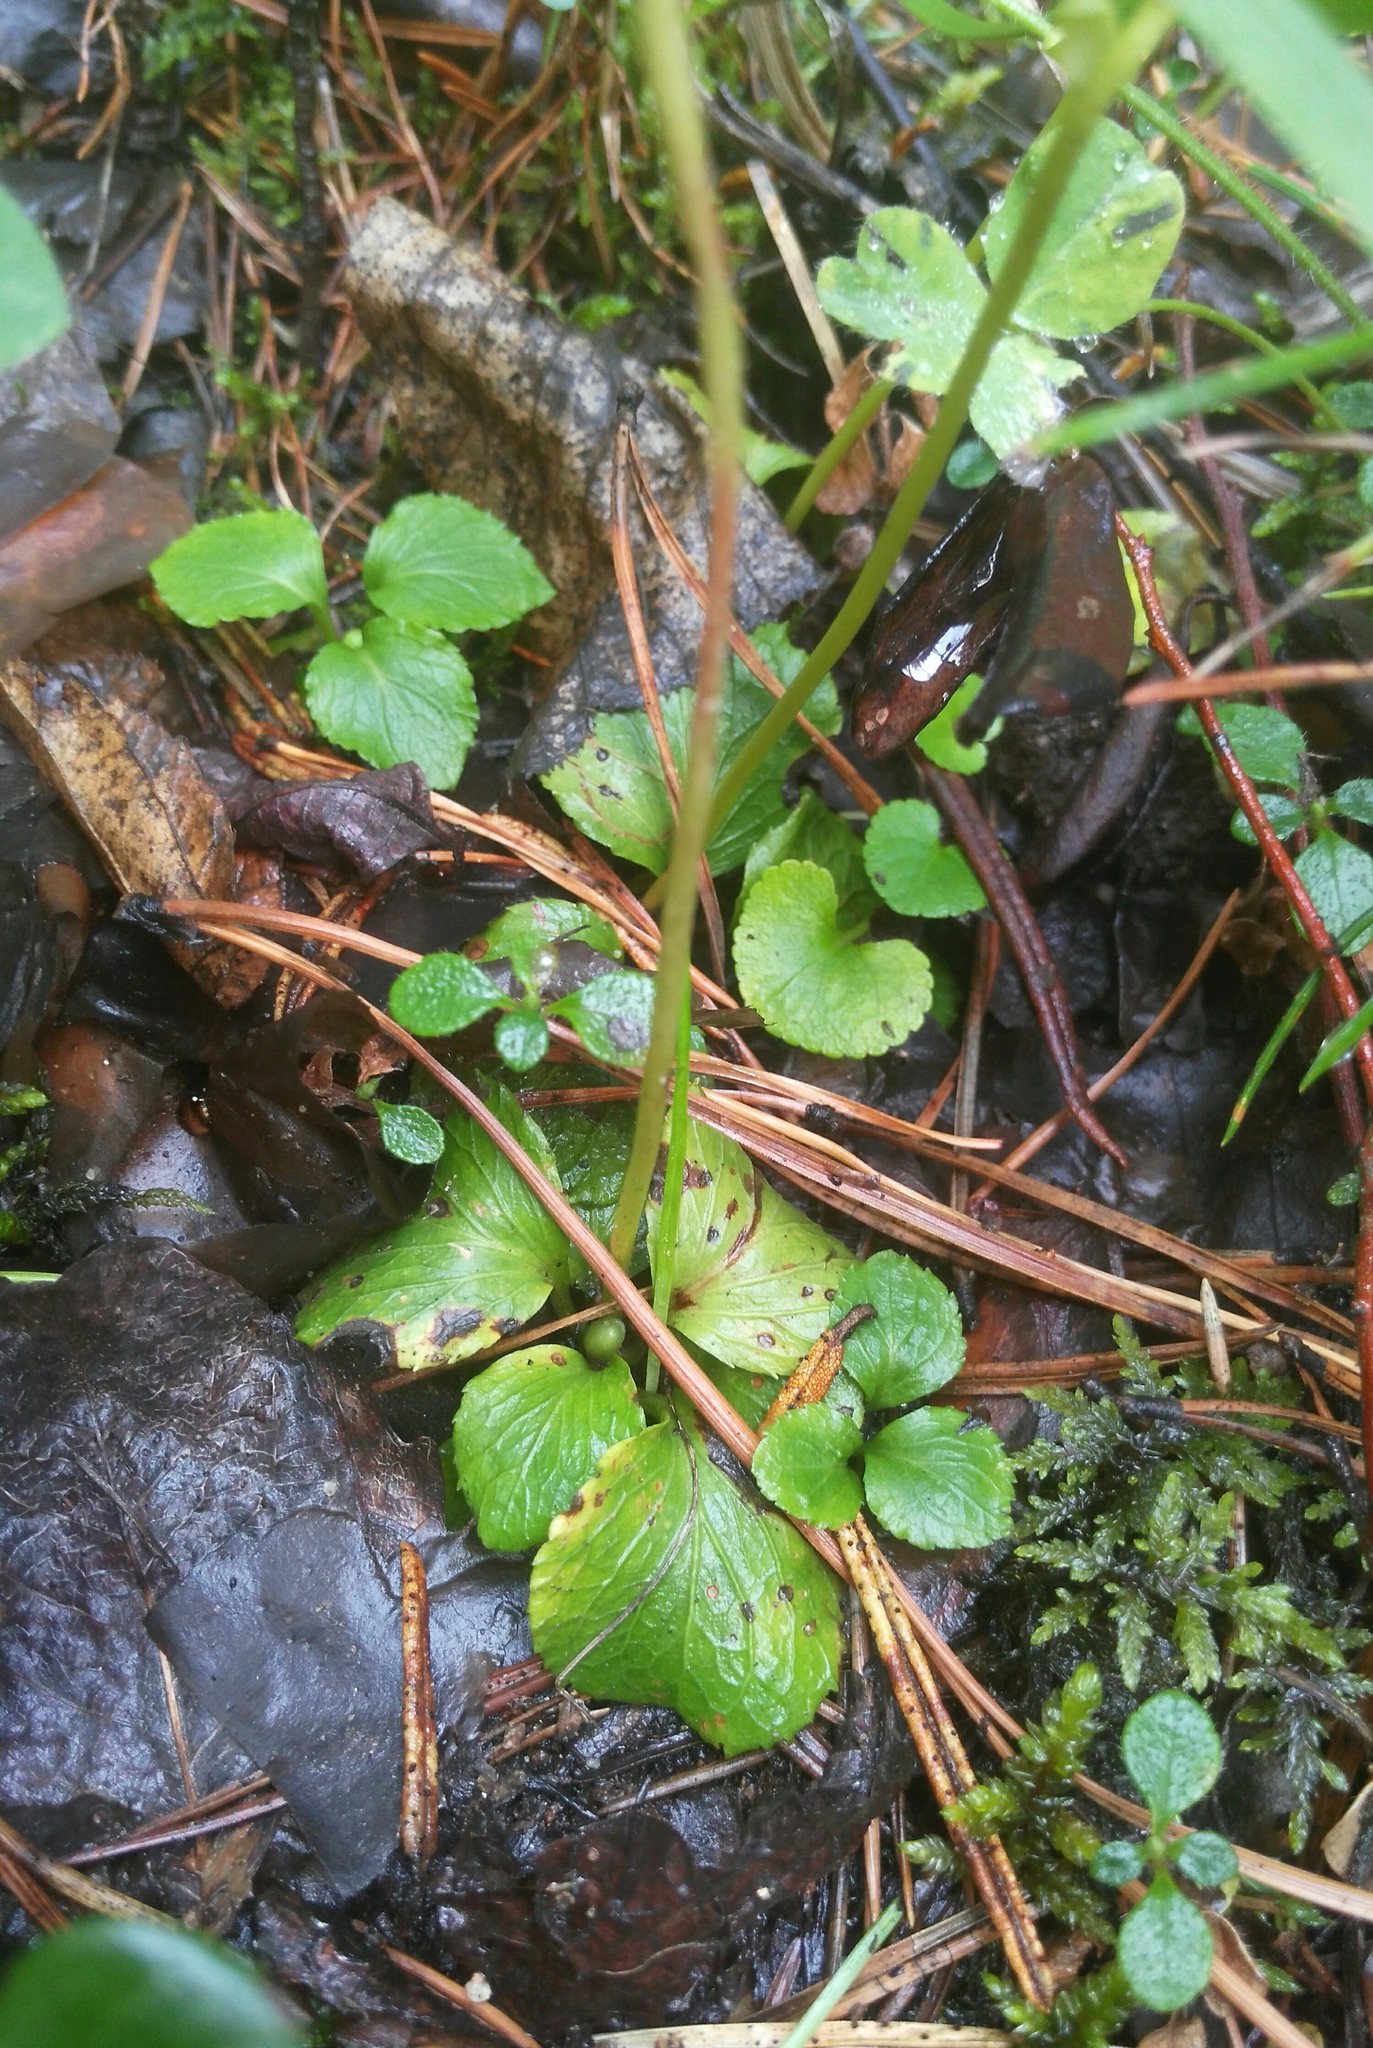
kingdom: Plantae
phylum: Tracheophyta
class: Magnoliopsida
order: Ericales
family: Ericaceae
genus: Moneses
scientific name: Moneses uniflora
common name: One-flowered wintergreen
